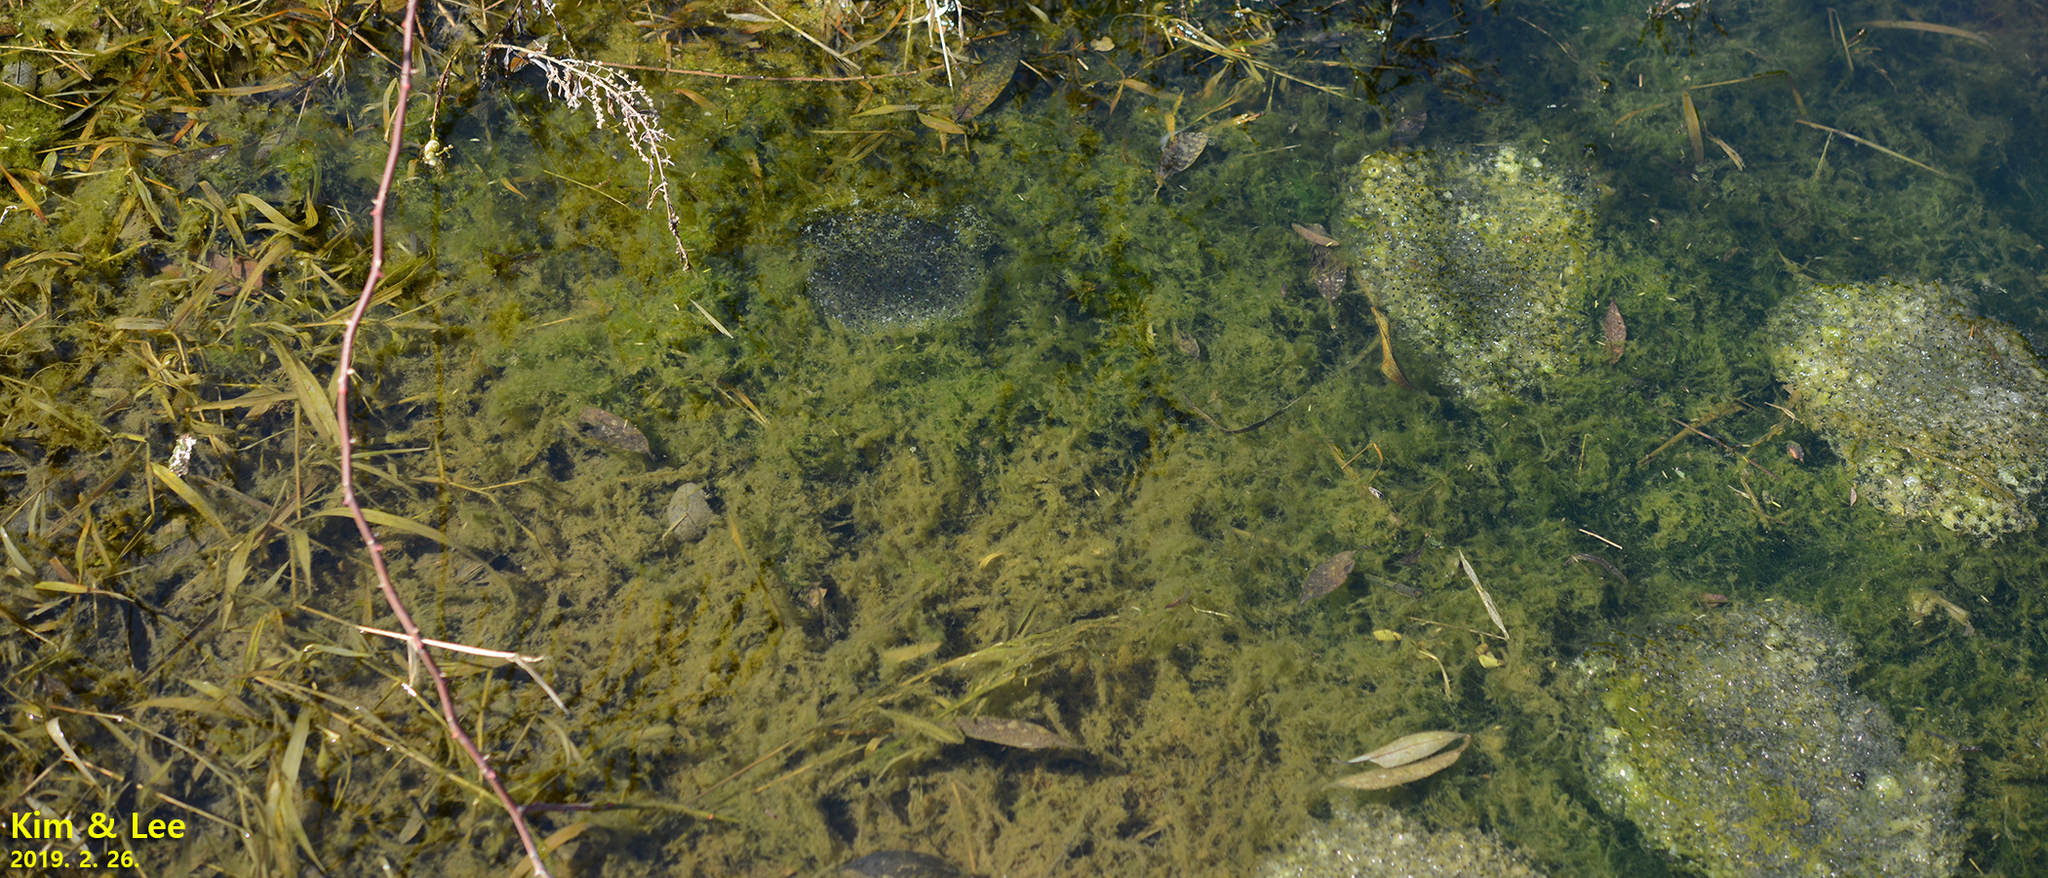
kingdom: Animalia
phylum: Chordata
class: Amphibia
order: Anura
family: Ranidae
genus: Rana
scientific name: Rana uenoi
